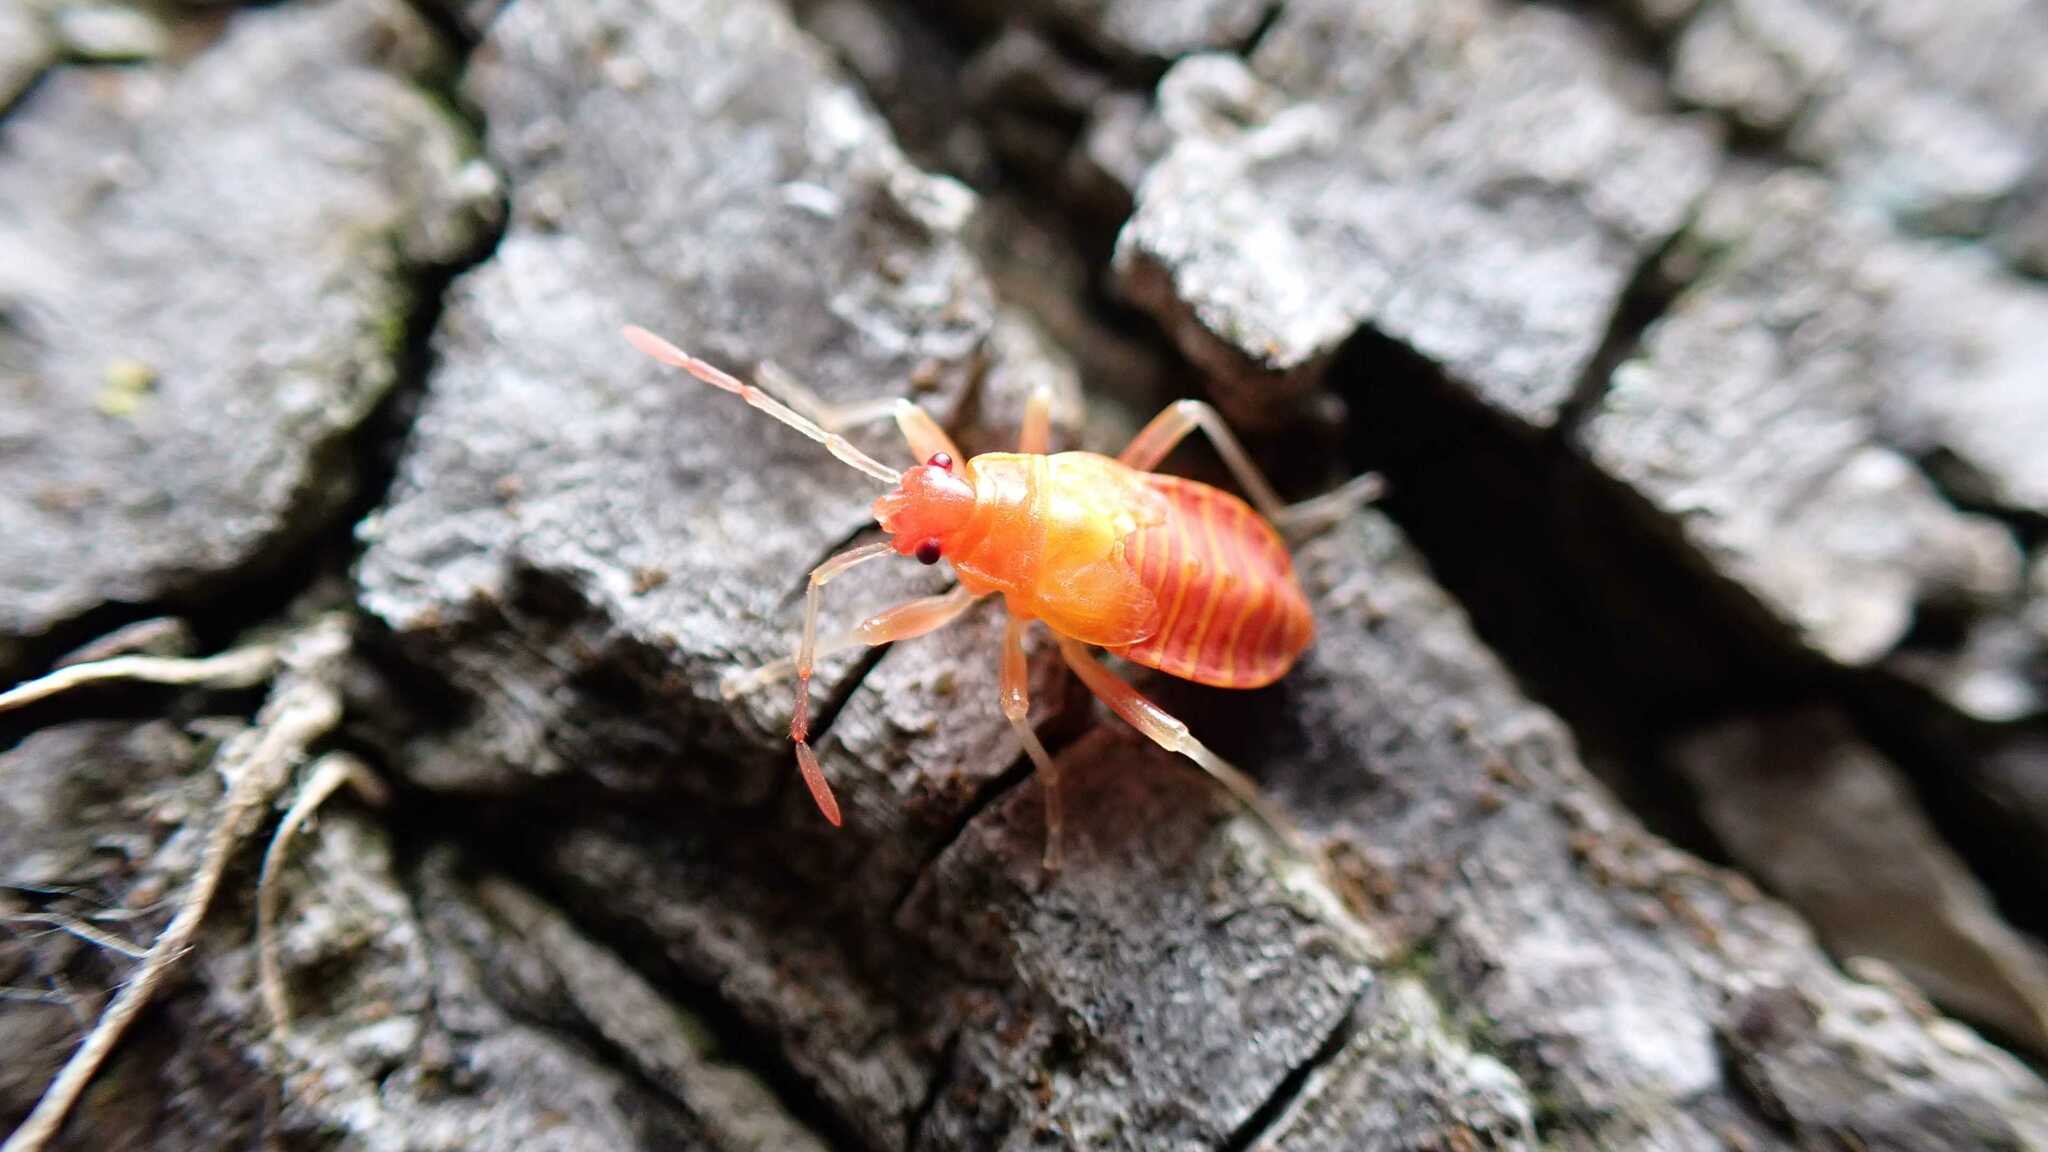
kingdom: Animalia
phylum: Arthropoda
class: Insecta
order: Hemiptera
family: Pyrrhocoridae
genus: Pyrrhocoris
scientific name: Pyrrhocoris apterus
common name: Firebug
